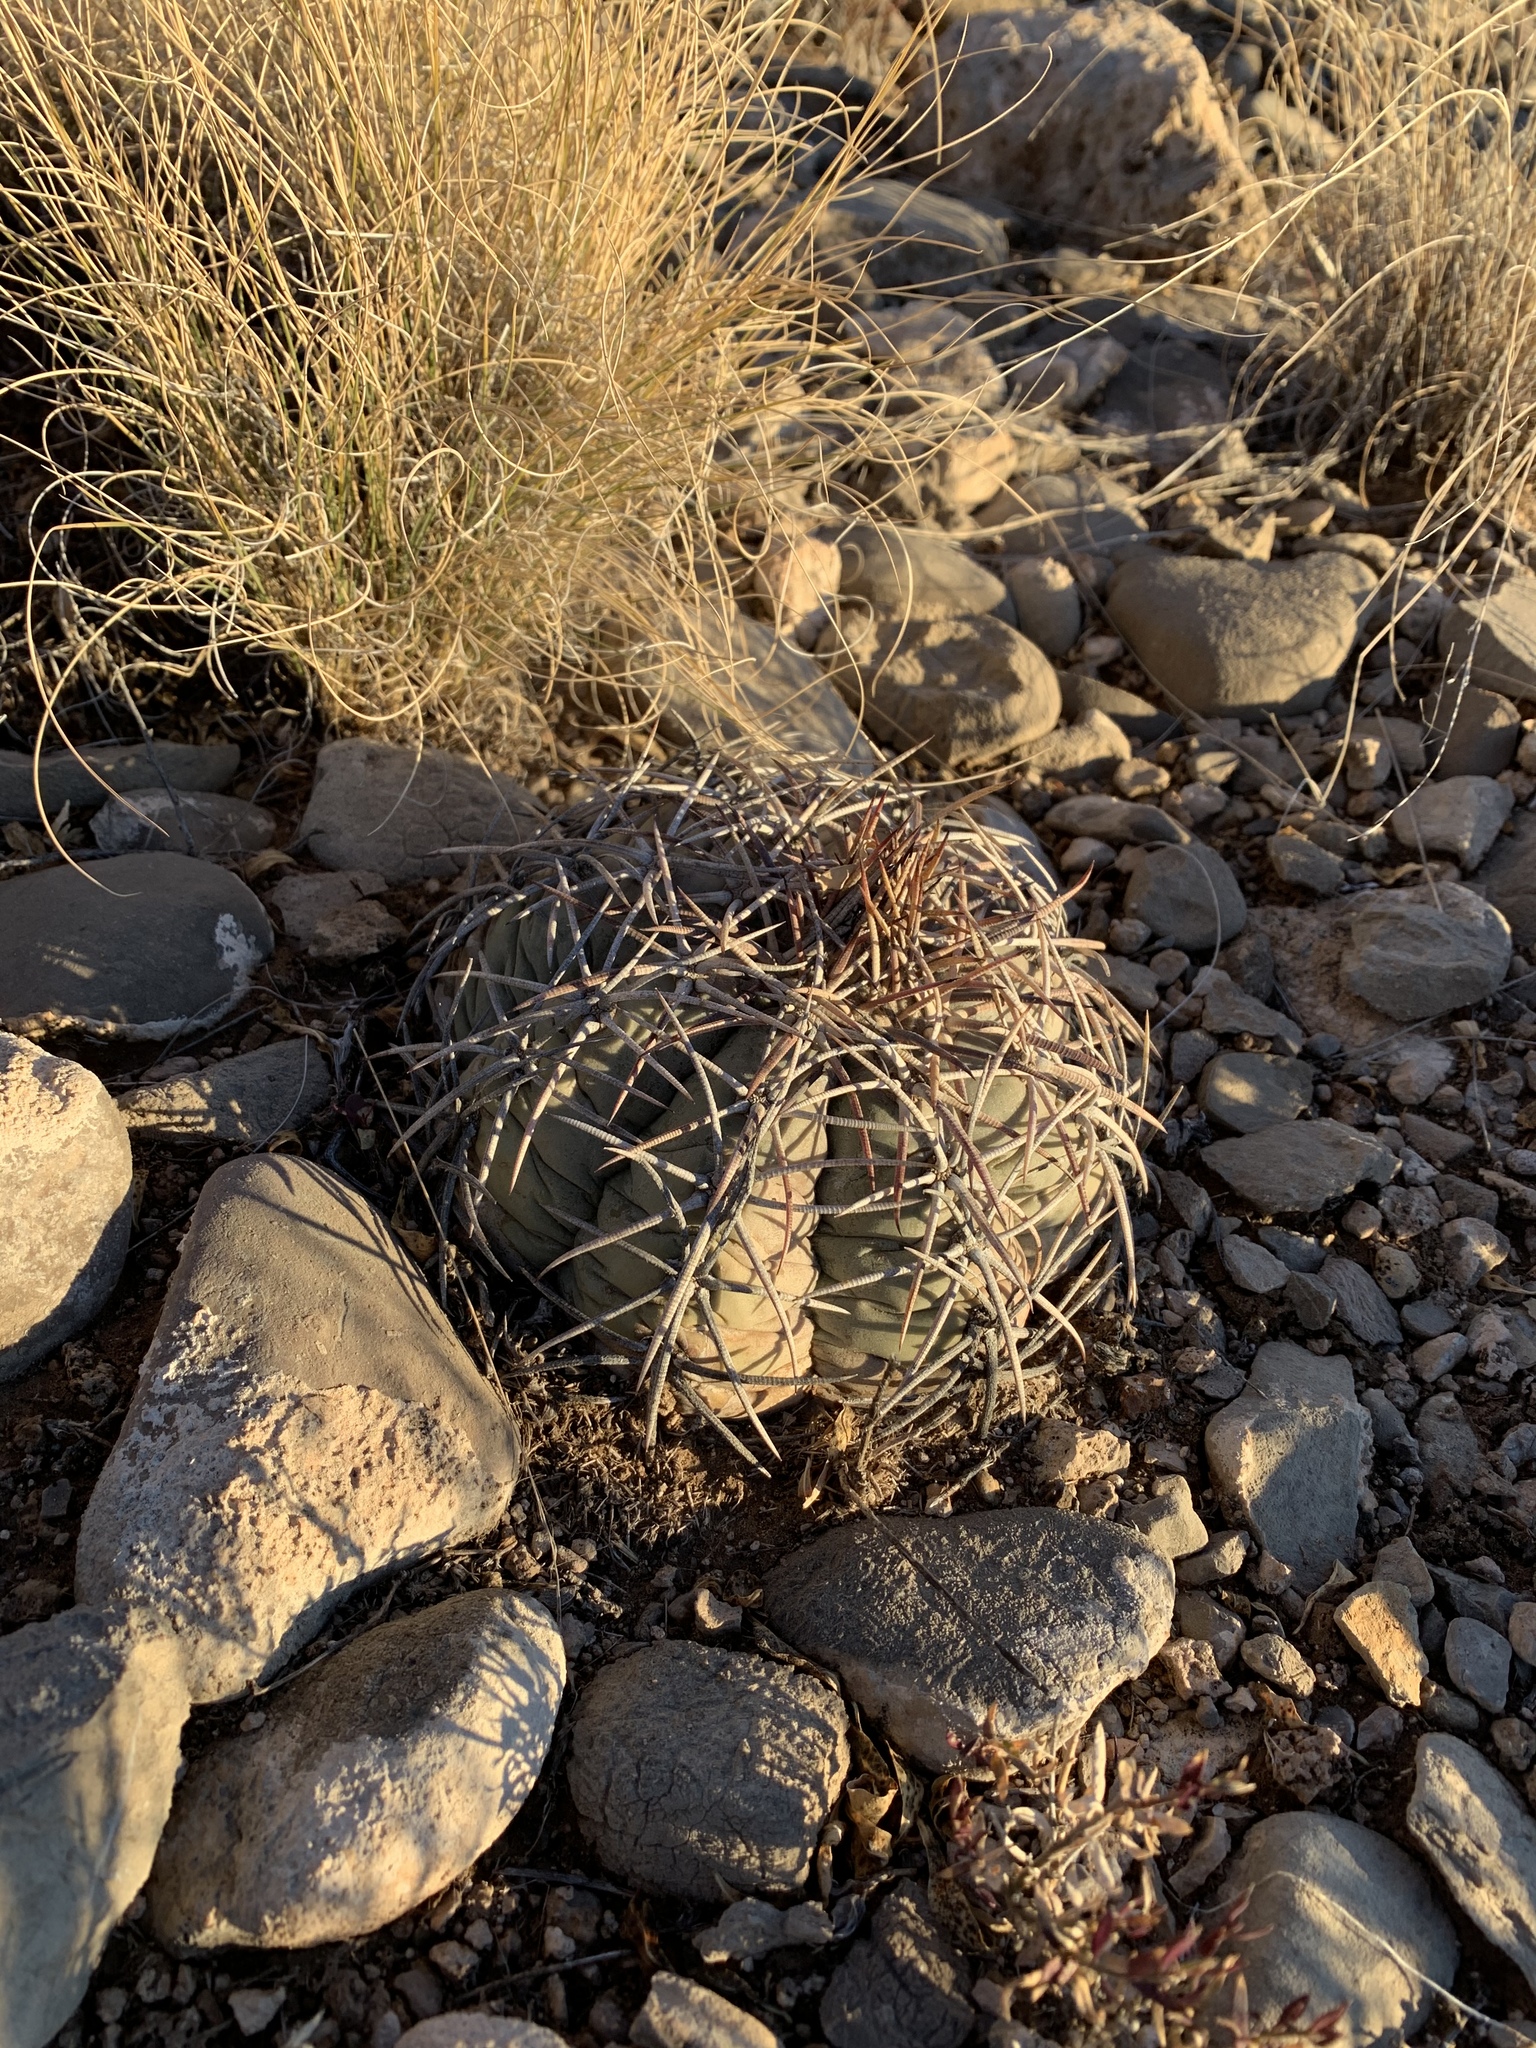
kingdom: Plantae
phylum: Tracheophyta
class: Magnoliopsida
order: Caryophyllales
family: Cactaceae
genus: Echinocactus
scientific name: Echinocactus horizonthalonius
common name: Devilshead
